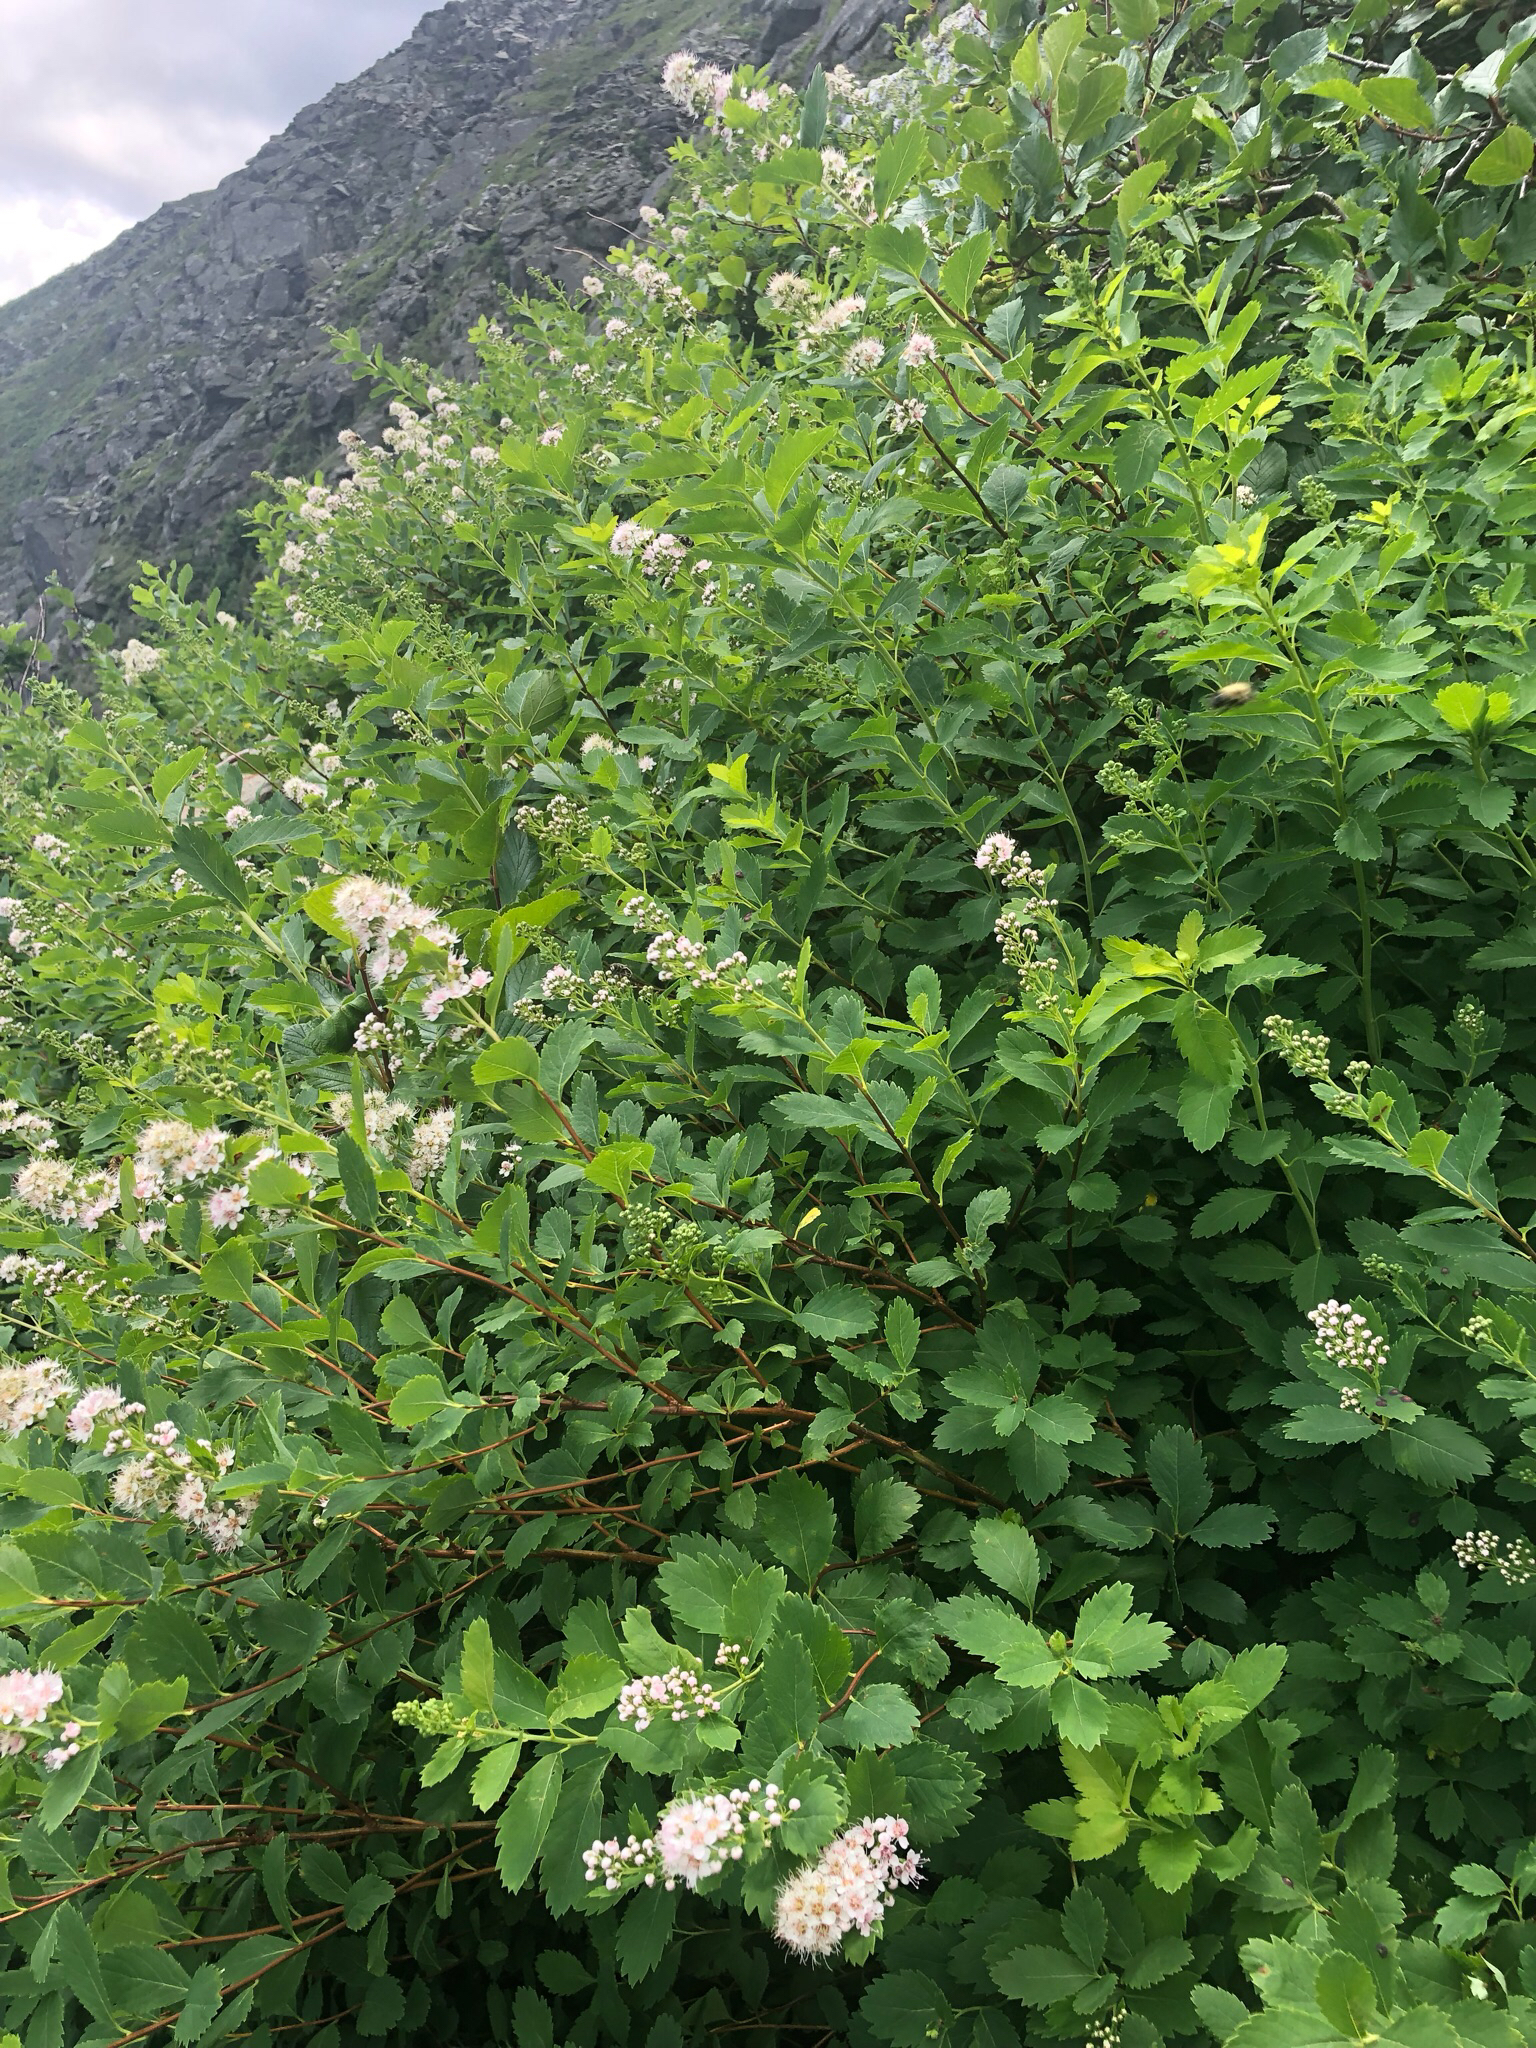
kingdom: Plantae
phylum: Tracheophyta
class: Magnoliopsida
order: Rosales
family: Rosaceae
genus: Spiraea
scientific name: Spiraea alba
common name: Pale bridewort
